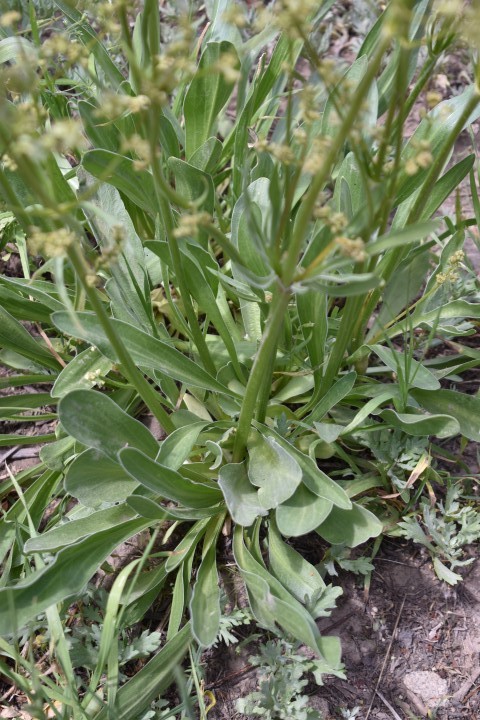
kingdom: Plantae
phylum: Tracheophyta
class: Magnoliopsida
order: Dipsacales
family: Caprifoliaceae
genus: Valeriana
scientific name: Valeriana edulis
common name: Taproot valerian
